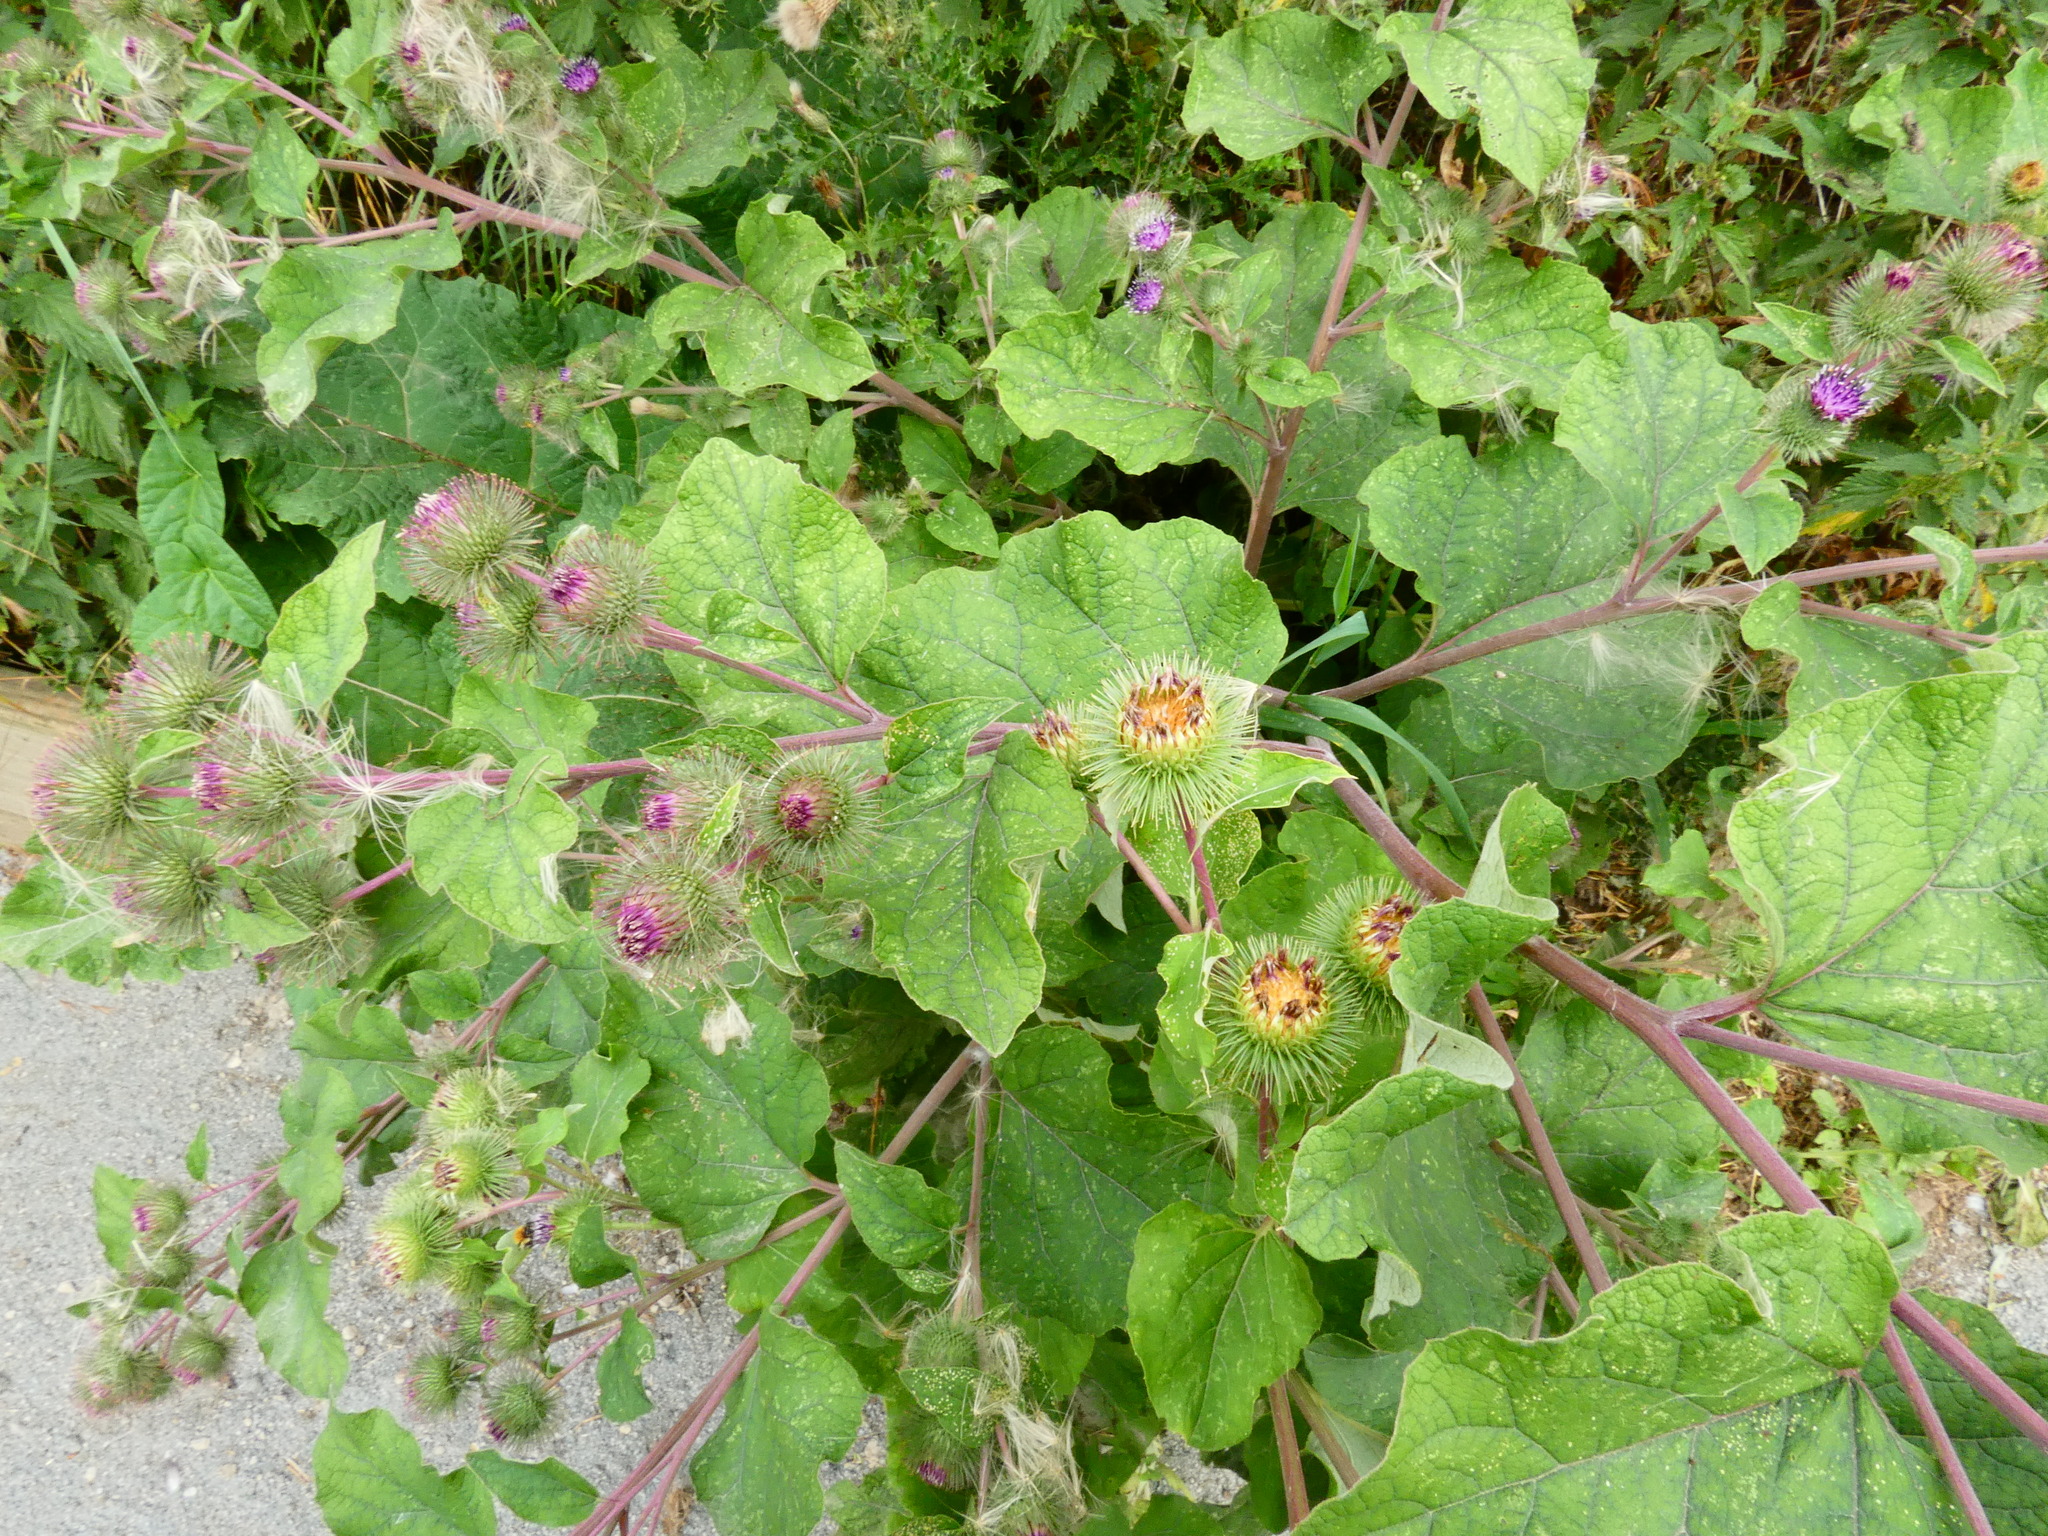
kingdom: Plantae
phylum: Tracheophyta
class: Magnoliopsida
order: Asterales
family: Asteraceae
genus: Arctium
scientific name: Arctium lappa
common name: Greater burdock
